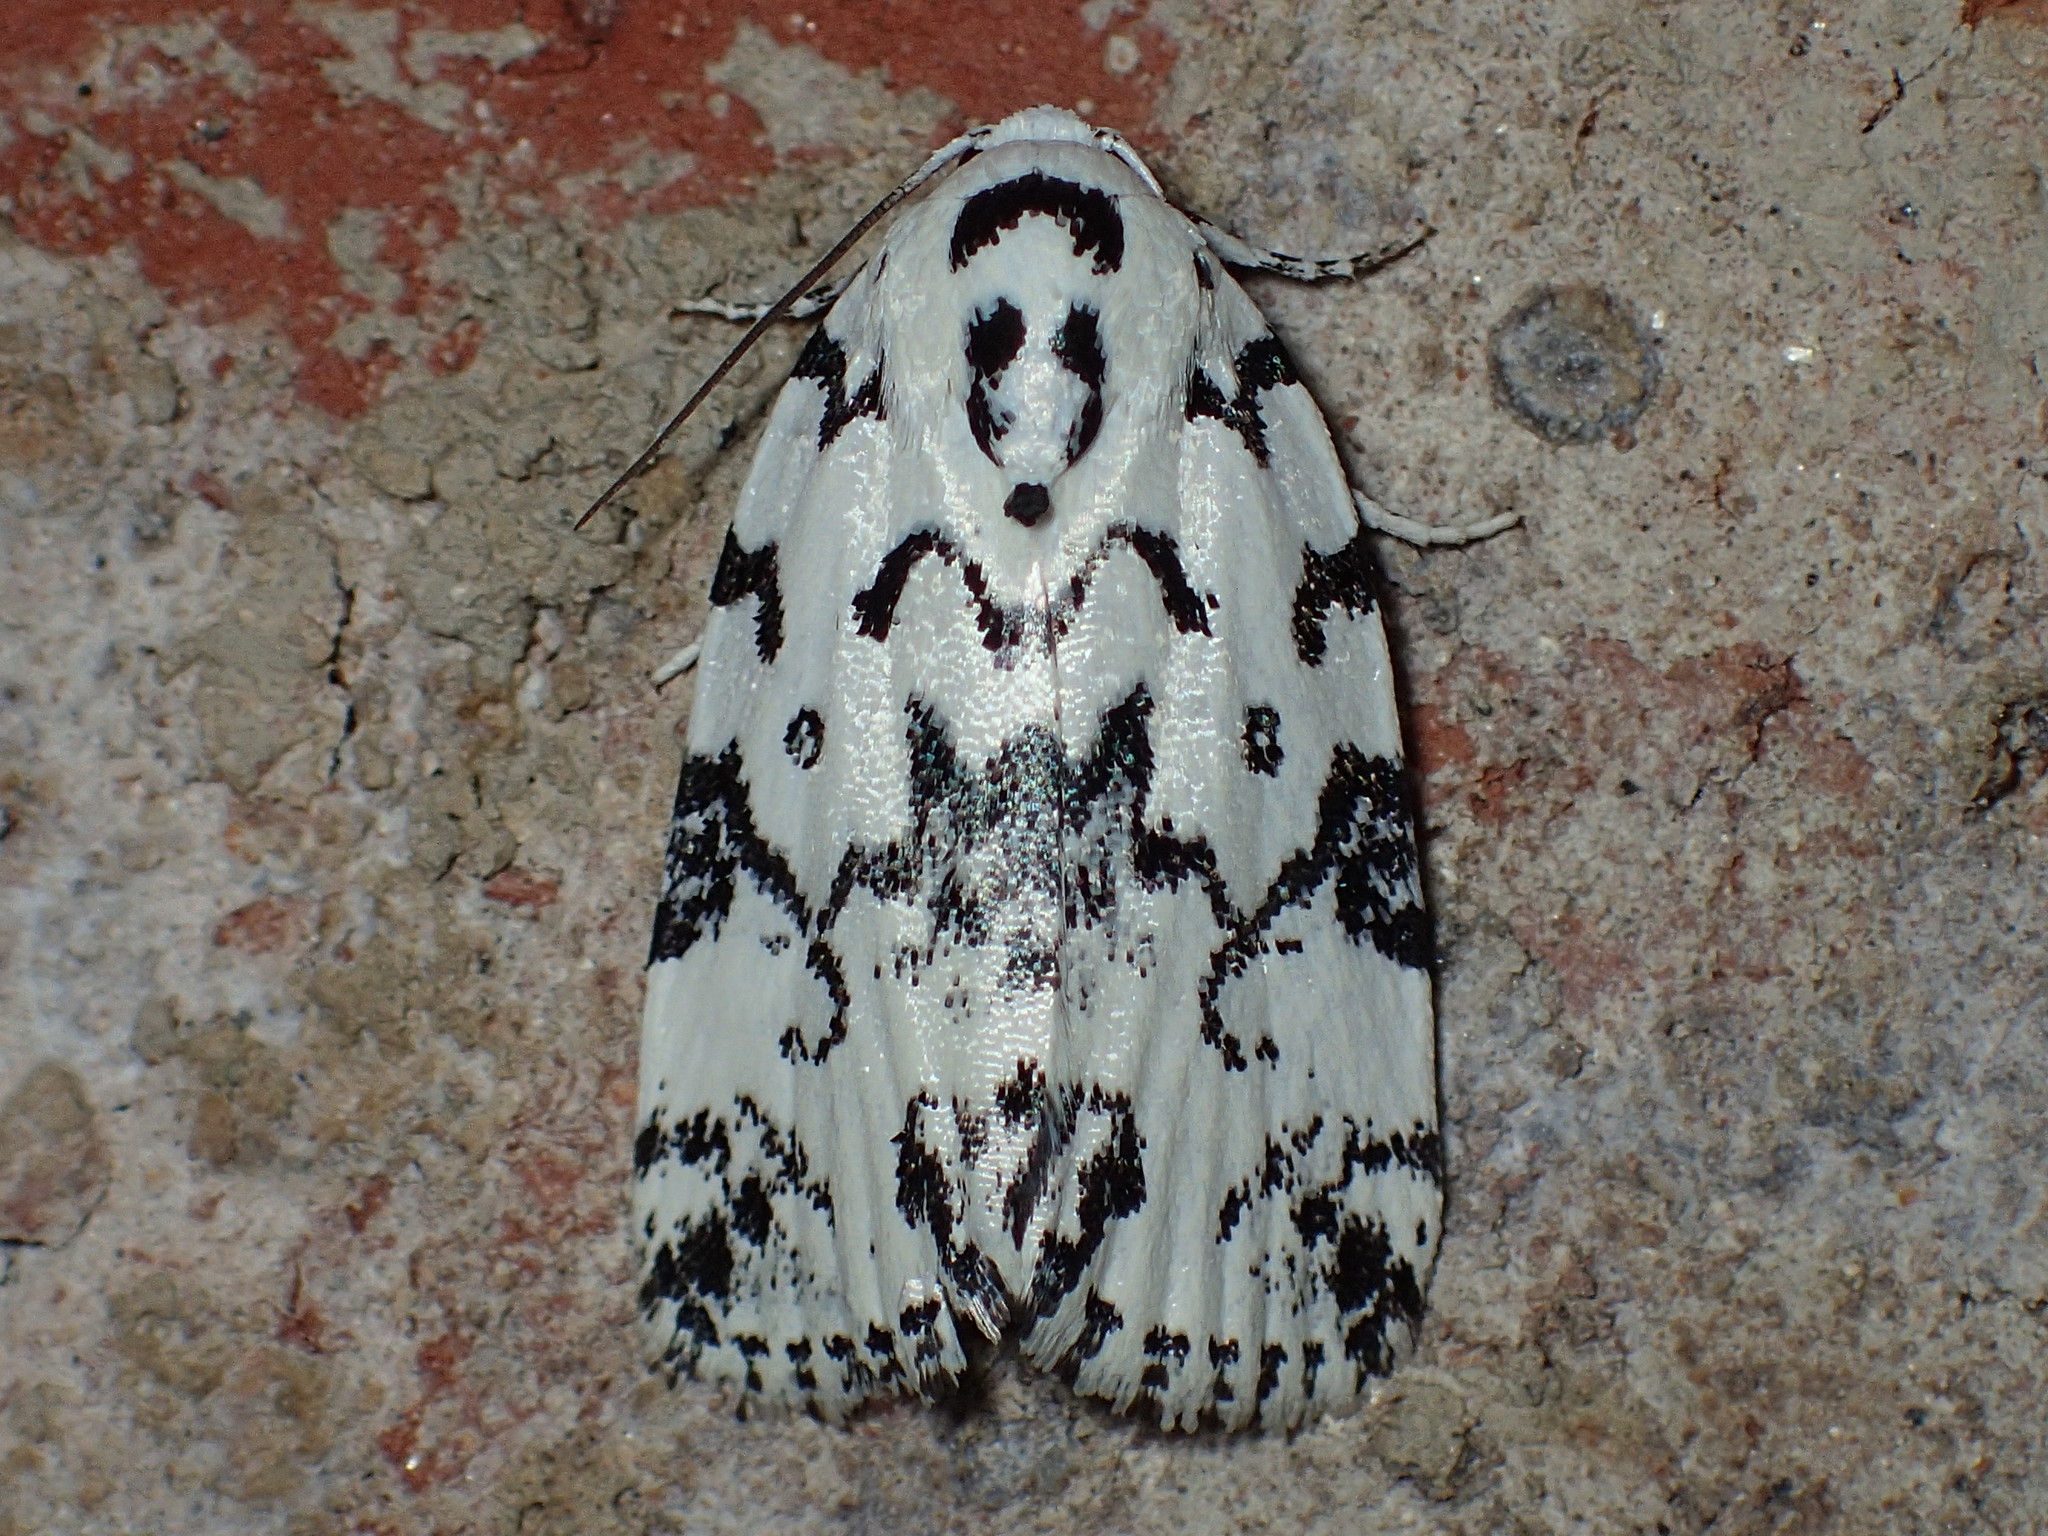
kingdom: Animalia
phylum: Arthropoda
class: Insecta
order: Lepidoptera
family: Noctuidae
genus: Polygrammate
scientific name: Polygrammate hebraeicum
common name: Hebrew moth
